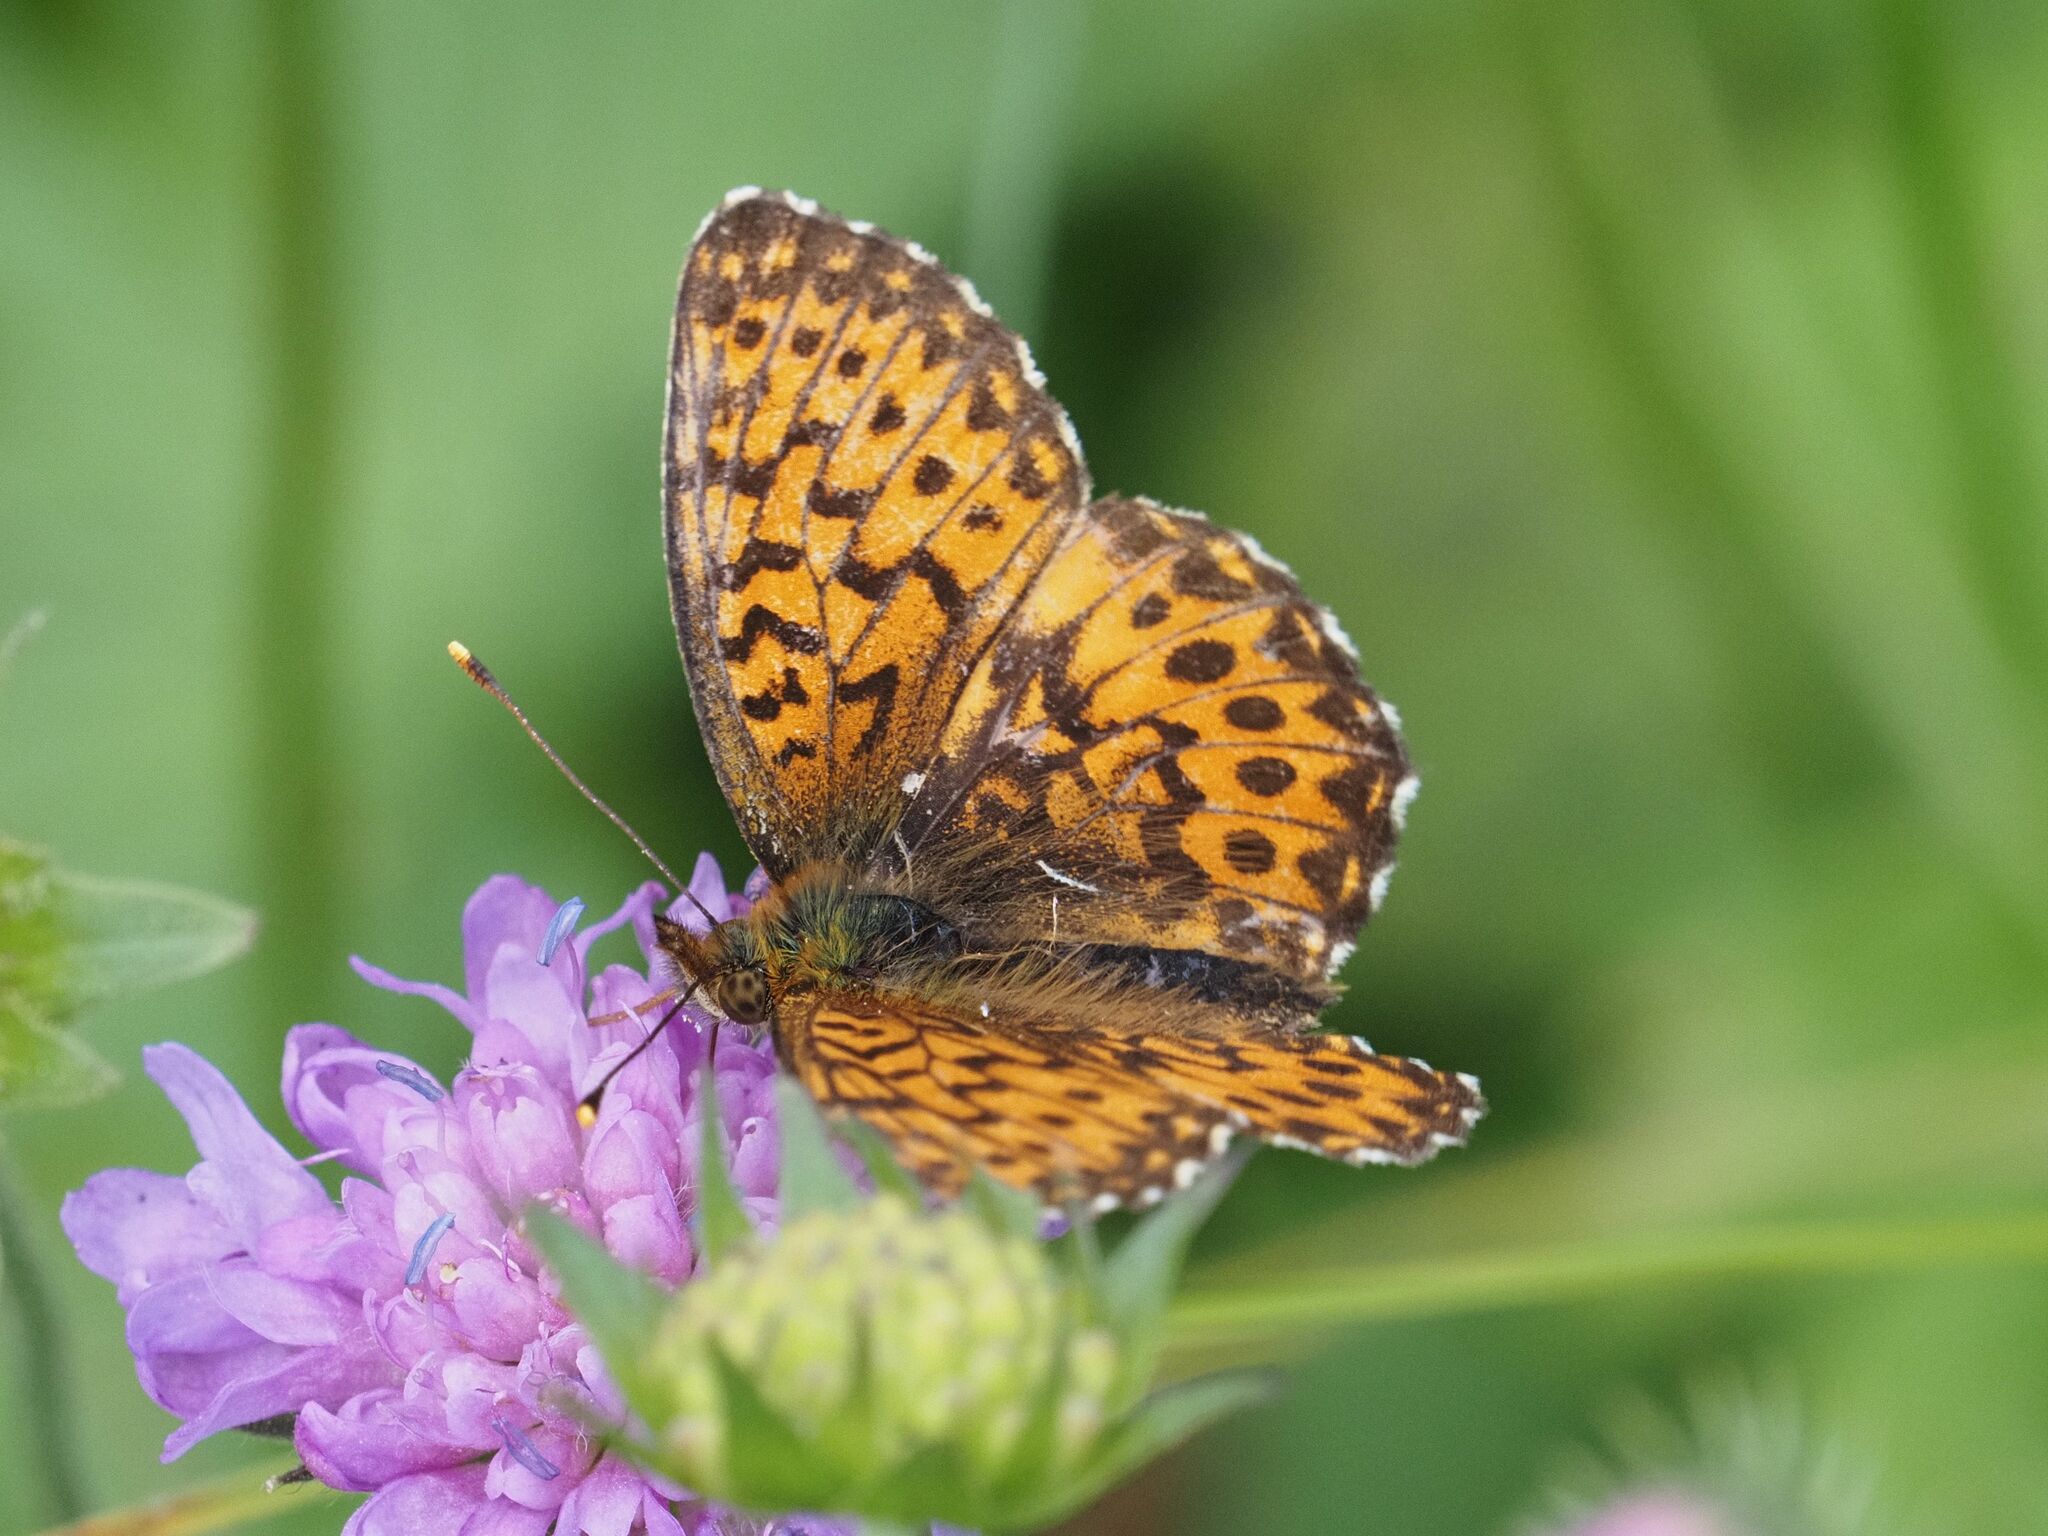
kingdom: Animalia
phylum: Arthropoda
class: Insecta
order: Lepidoptera
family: Nymphalidae
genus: Boloria
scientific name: Boloria titania
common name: Titania's fritillary
